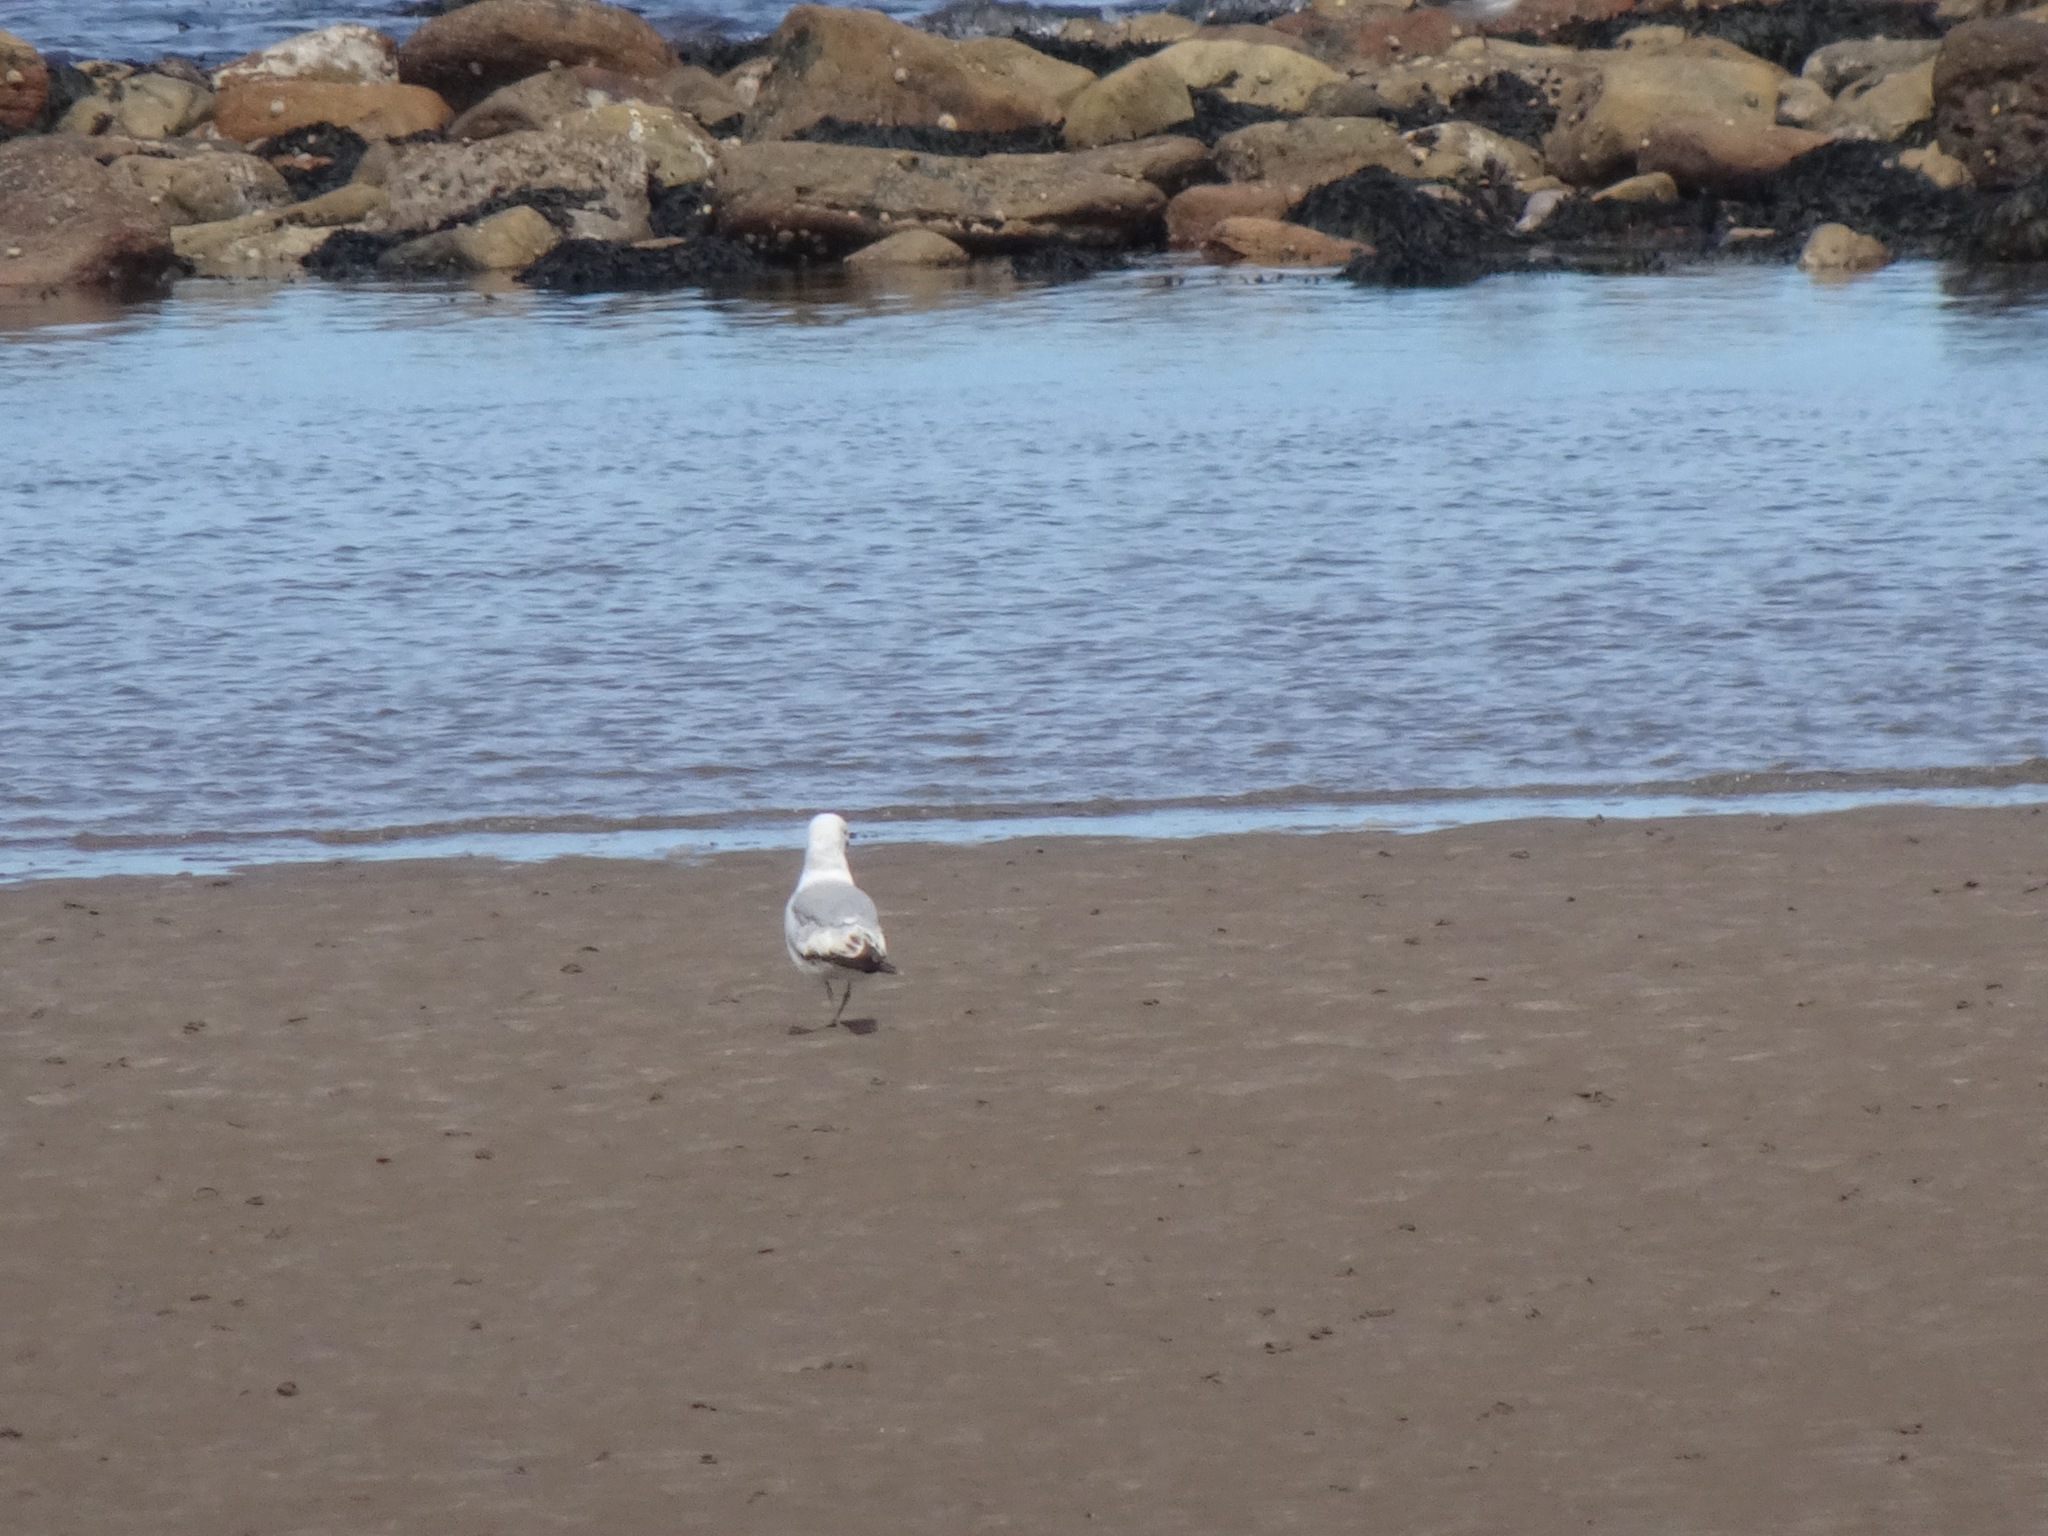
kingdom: Animalia
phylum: Chordata
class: Aves
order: Charadriiformes
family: Laridae
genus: Larus
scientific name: Larus argentatus
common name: Herring gull
